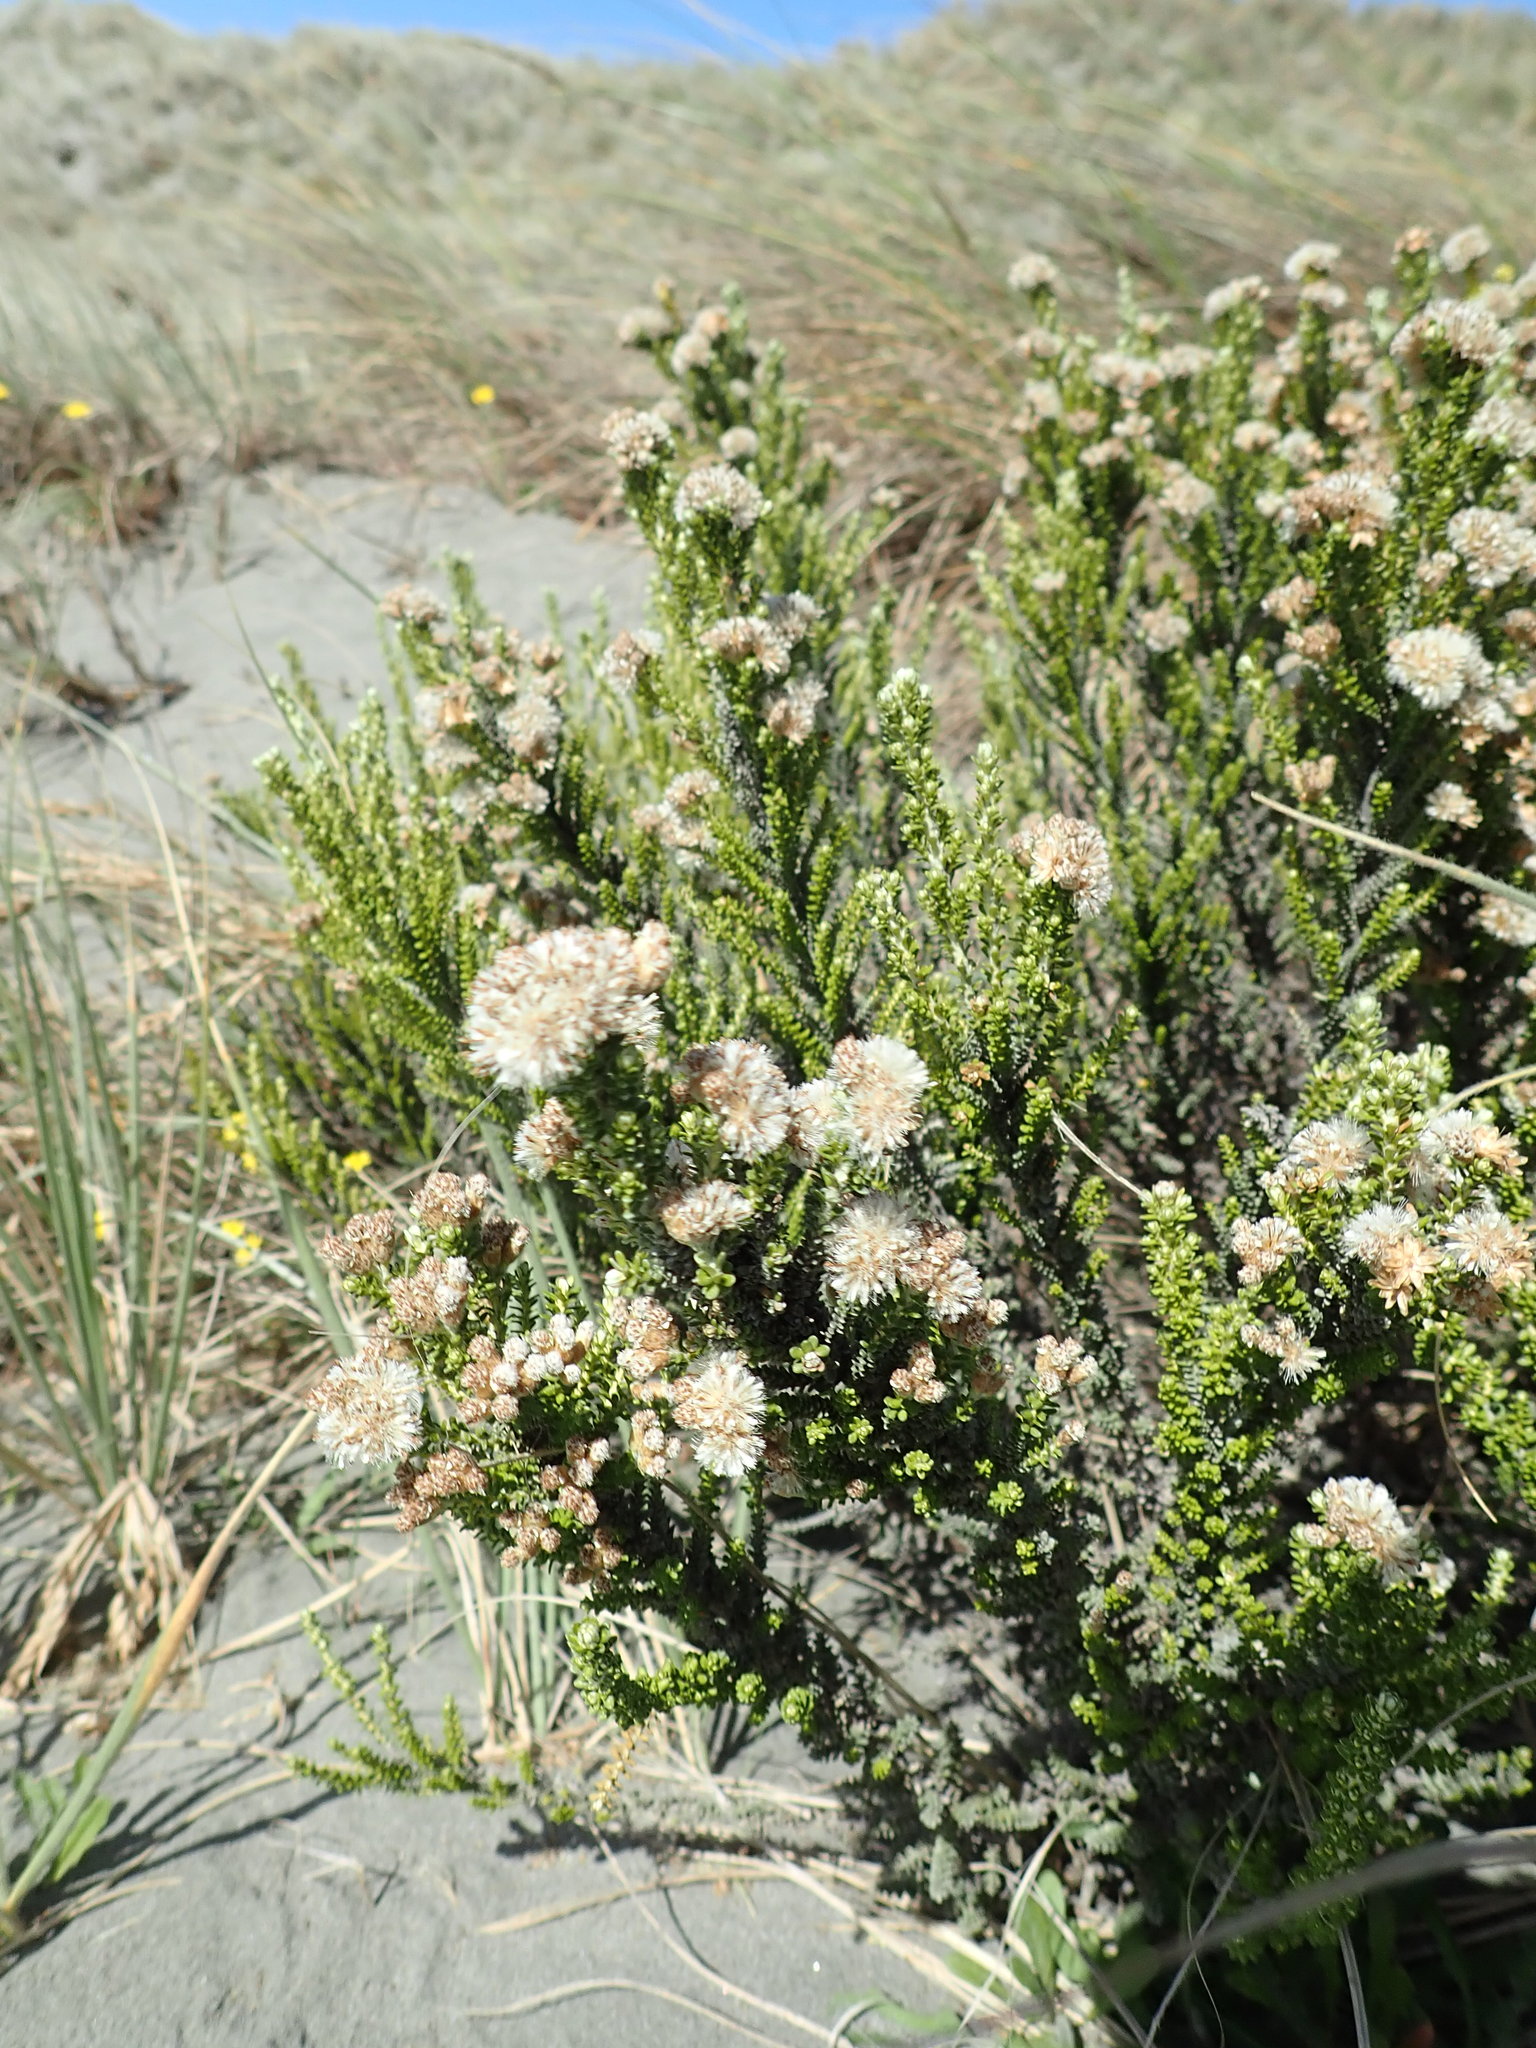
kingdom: Plantae
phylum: Tracheophyta
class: Magnoliopsida
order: Asterales
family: Asteraceae
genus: Ozothamnus
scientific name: Ozothamnus leptophyllus
